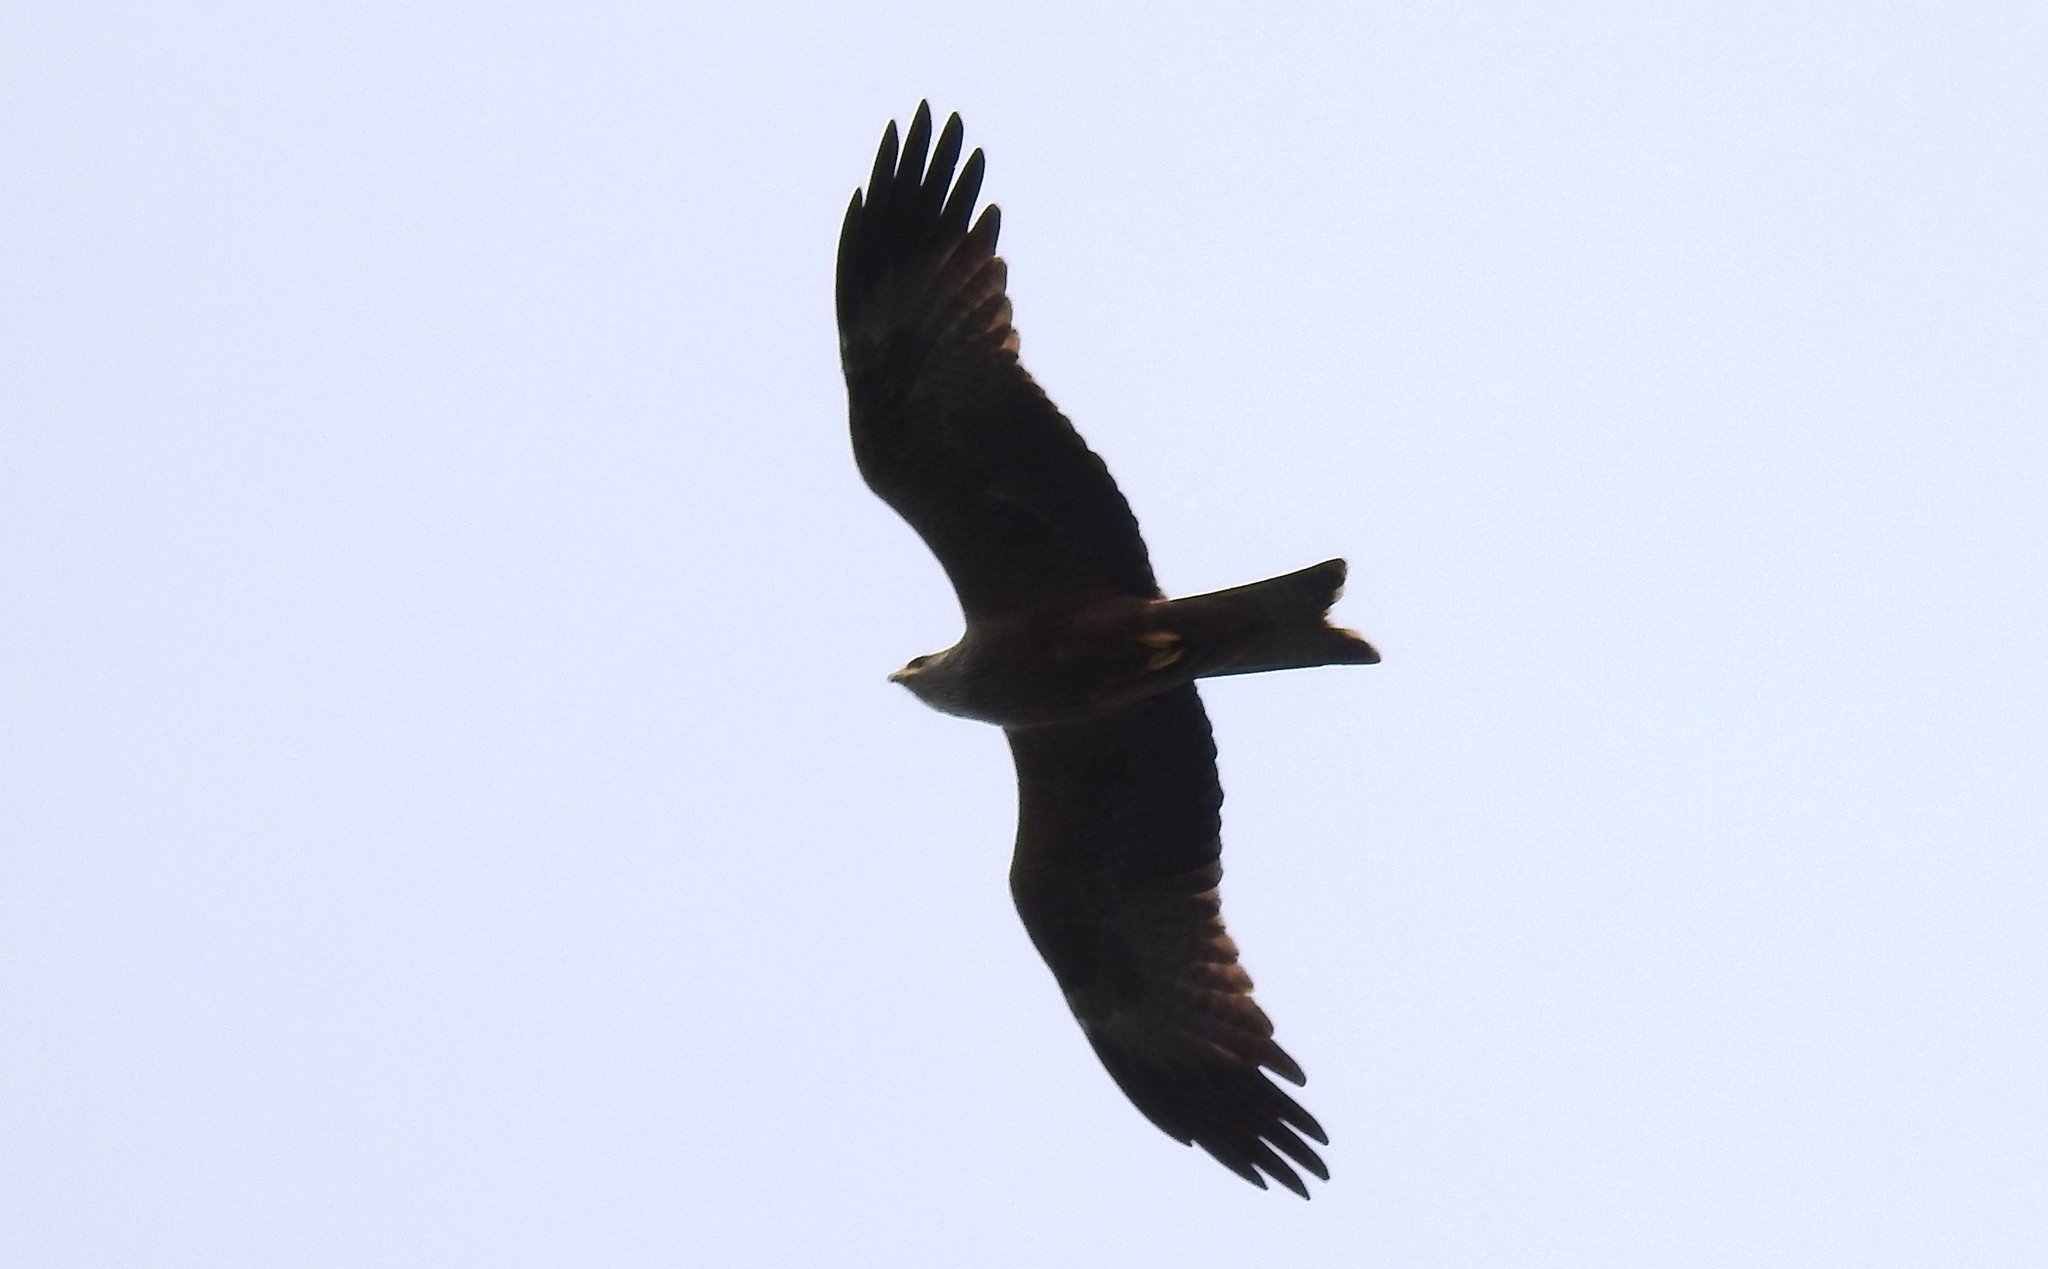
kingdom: Animalia
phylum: Chordata
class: Aves
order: Accipitriformes
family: Accipitridae
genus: Milvus
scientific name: Milvus migrans
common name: Black kite
